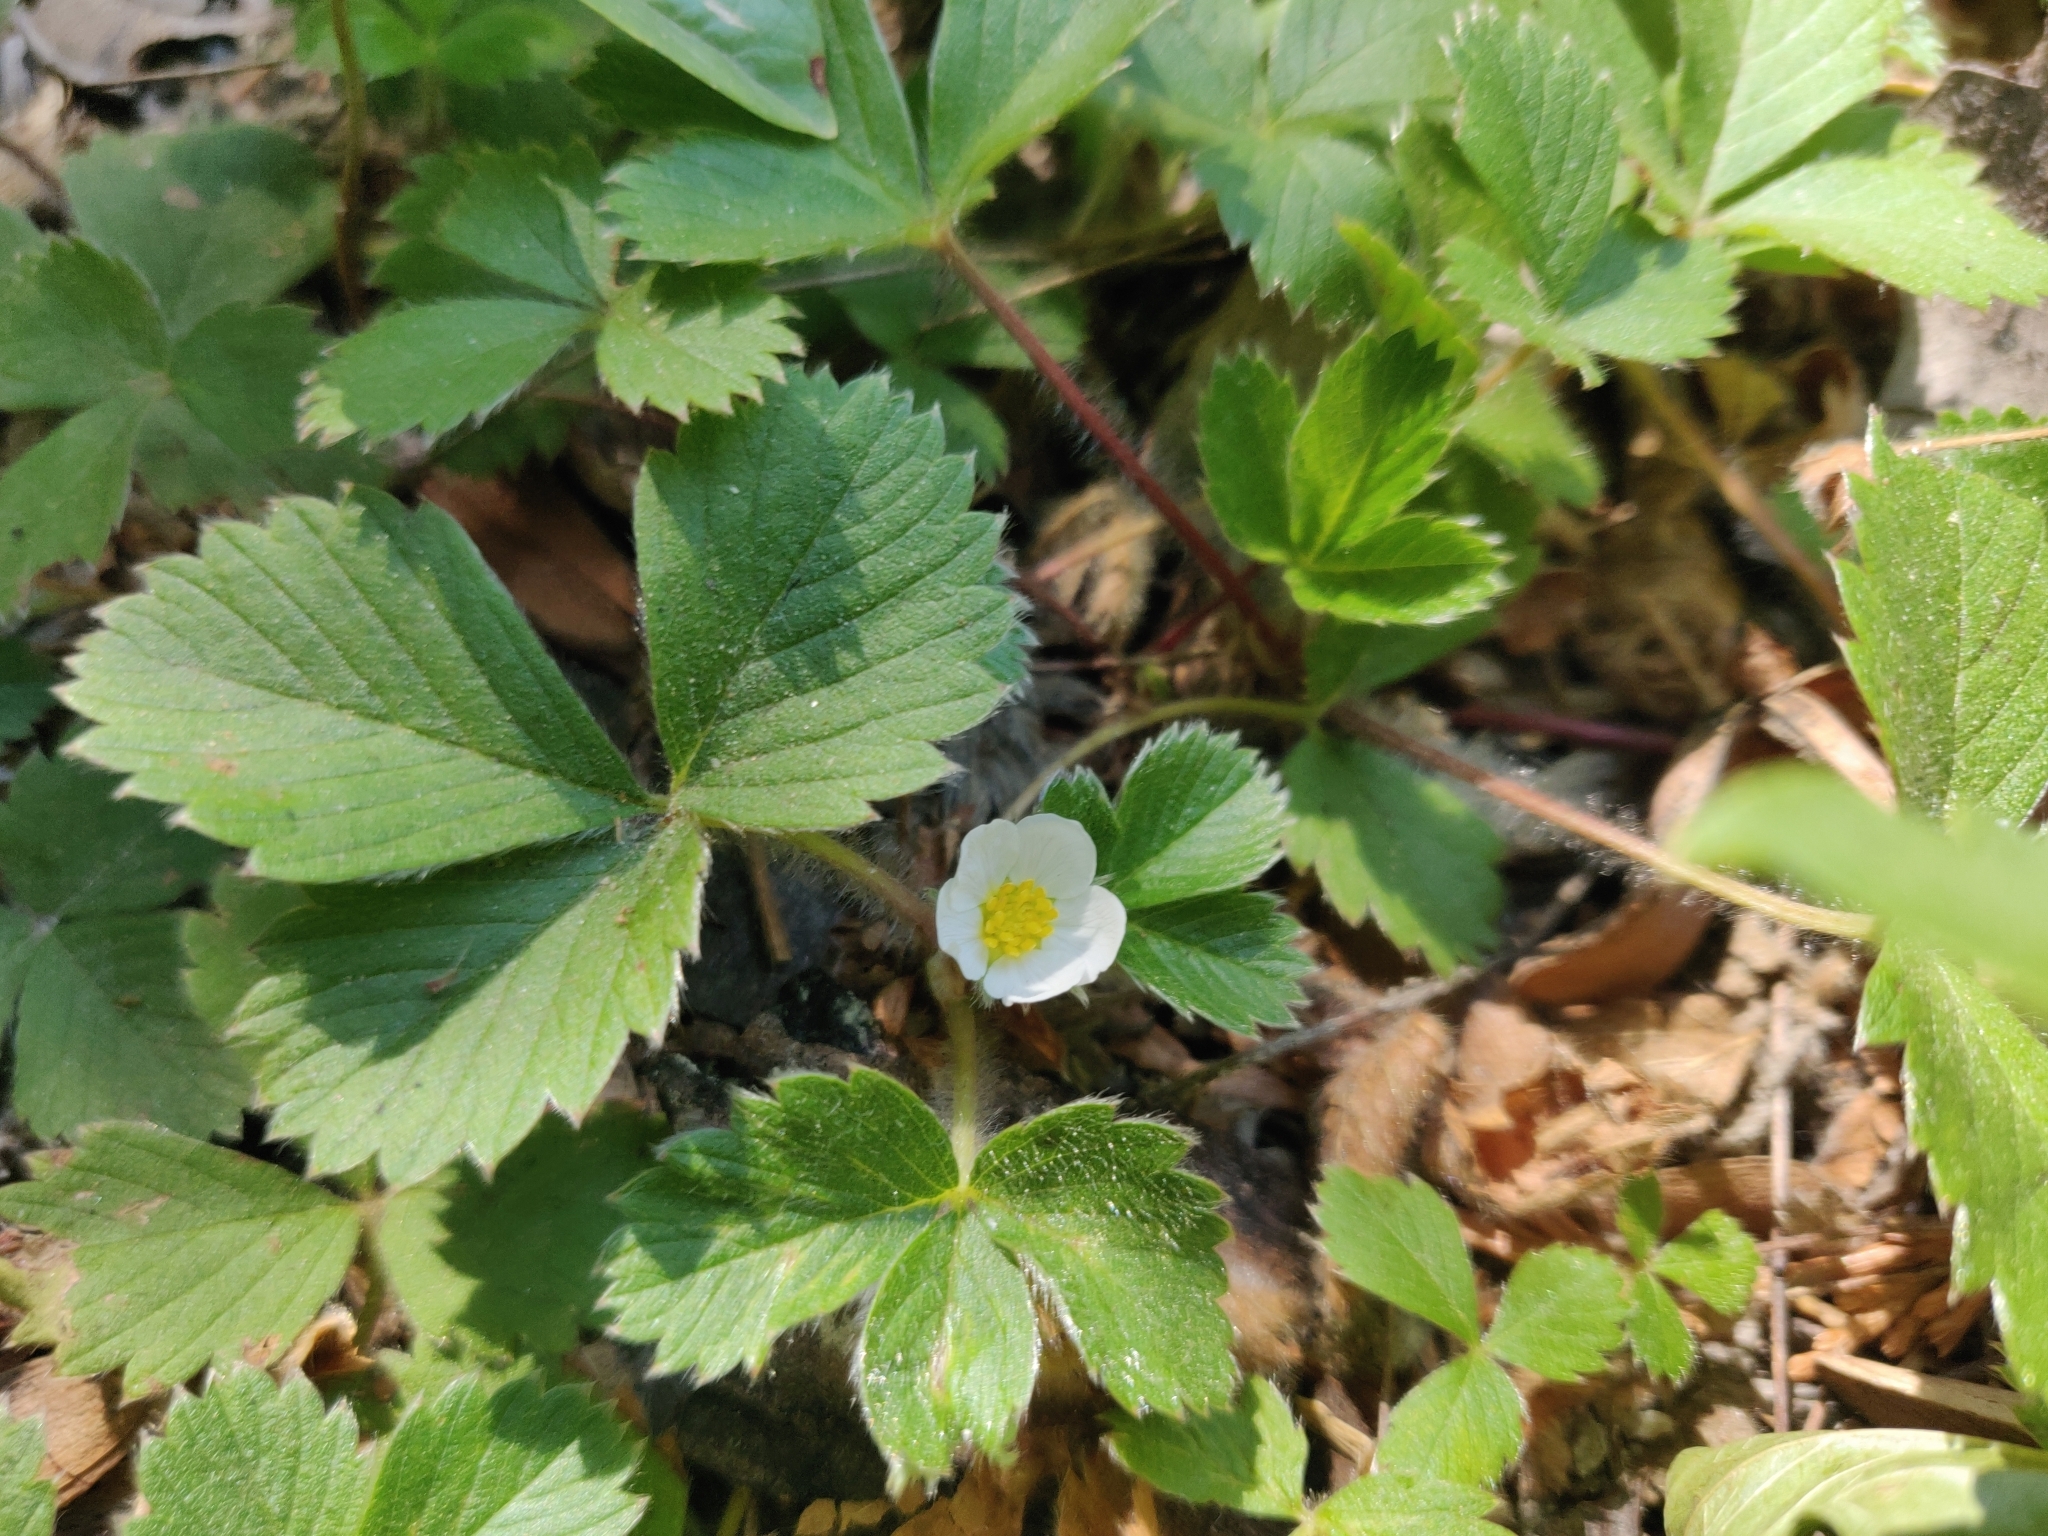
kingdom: Plantae
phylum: Tracheophyta
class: Magnoliopsida
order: Rosales
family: Rosaceae
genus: Fragaria
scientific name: Fragaria vesca
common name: Wild strawberry
